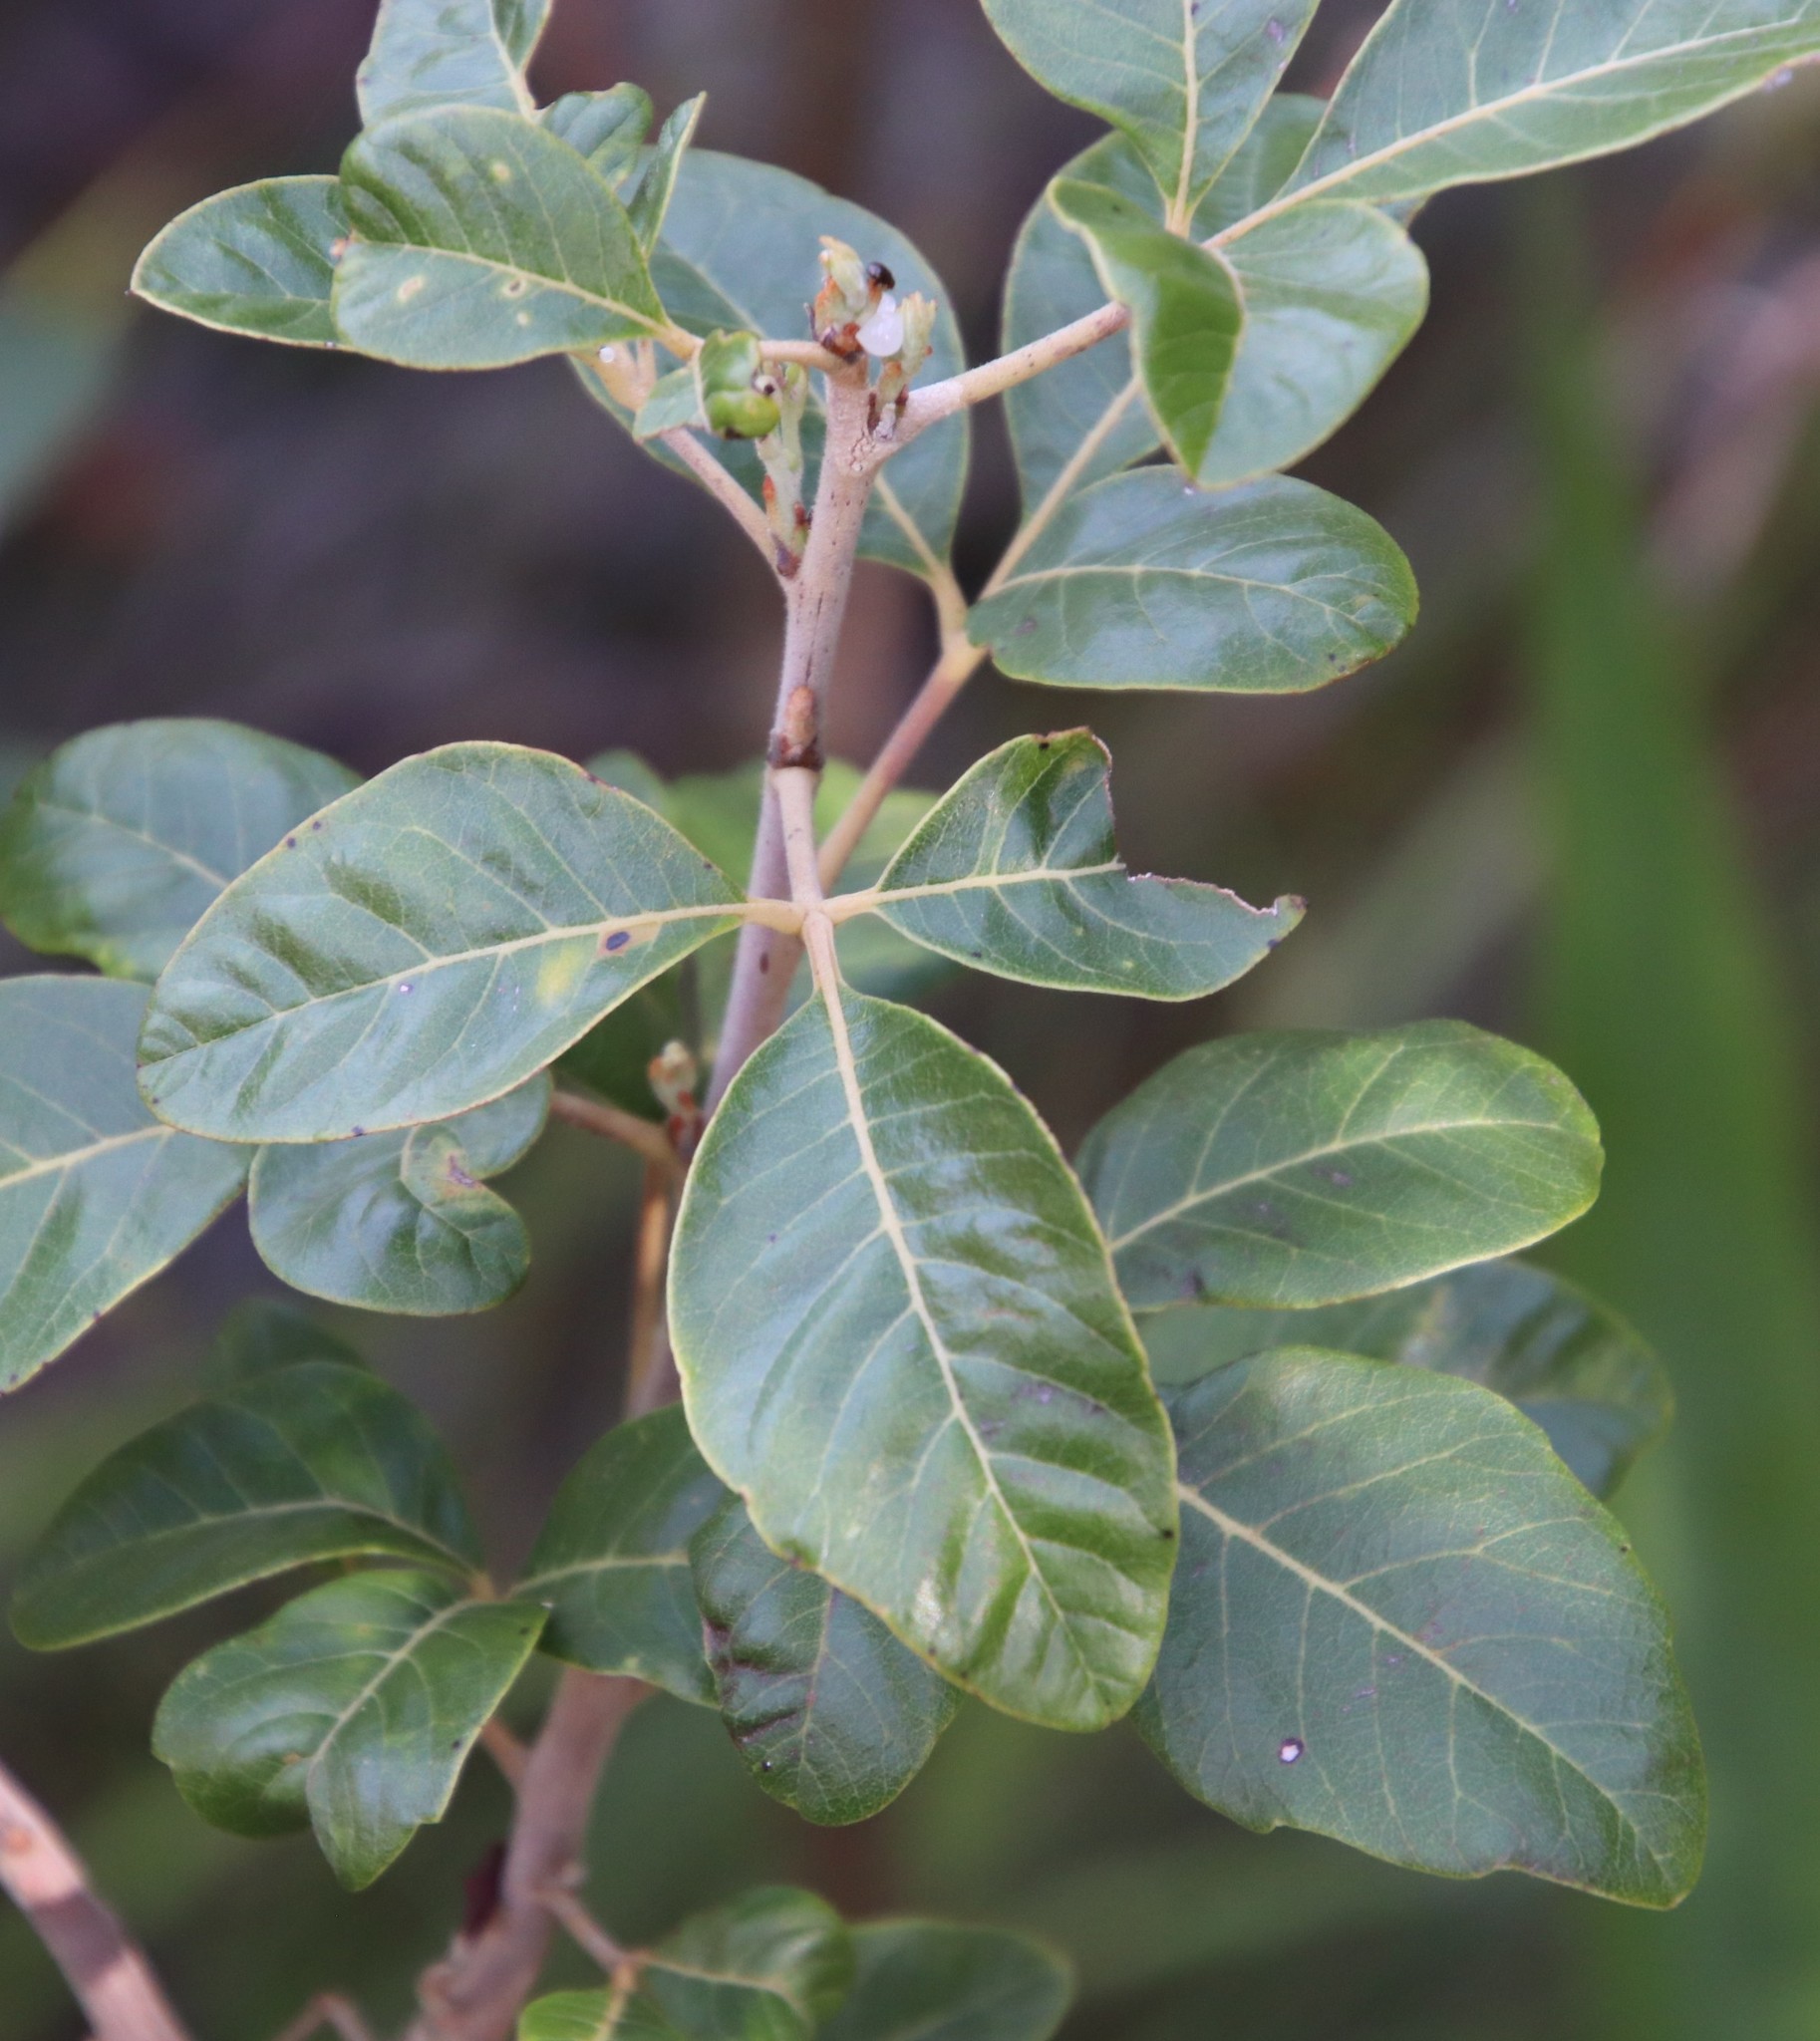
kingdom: Plantae
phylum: Tracheophyta
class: Magnoliopsida
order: Sapindales
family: Anacardiaceae
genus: Searsia
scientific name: Searsia tomentosa
